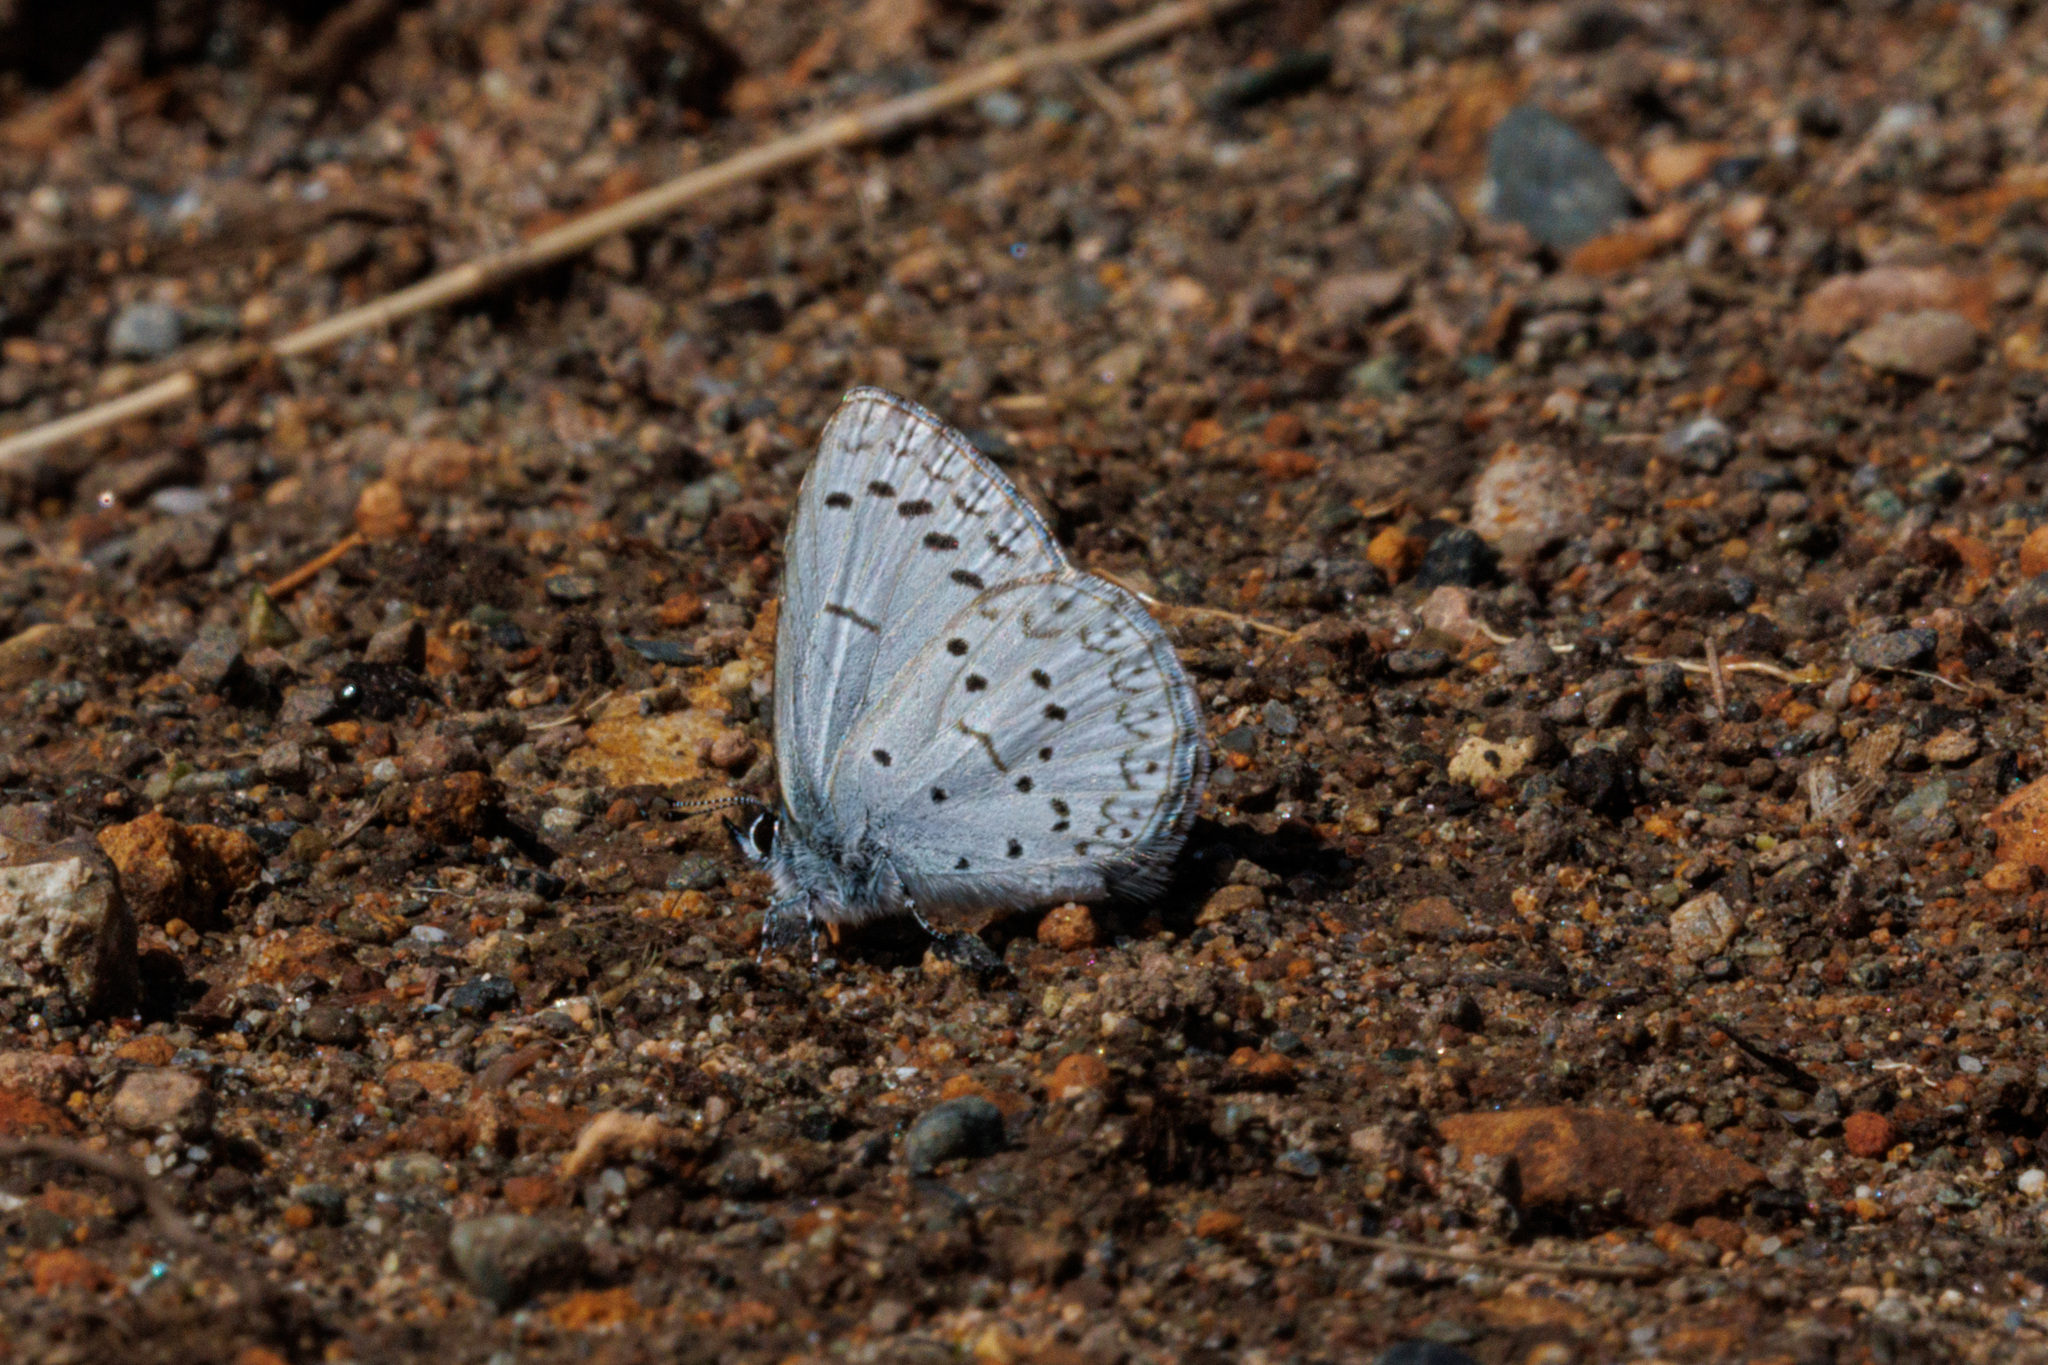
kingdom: Animalia
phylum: Arthropoda
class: Insecta
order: Lepidoptera
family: Lycaenidae
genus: Celastrina
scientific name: Celastrina ladon
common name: Spring azure
